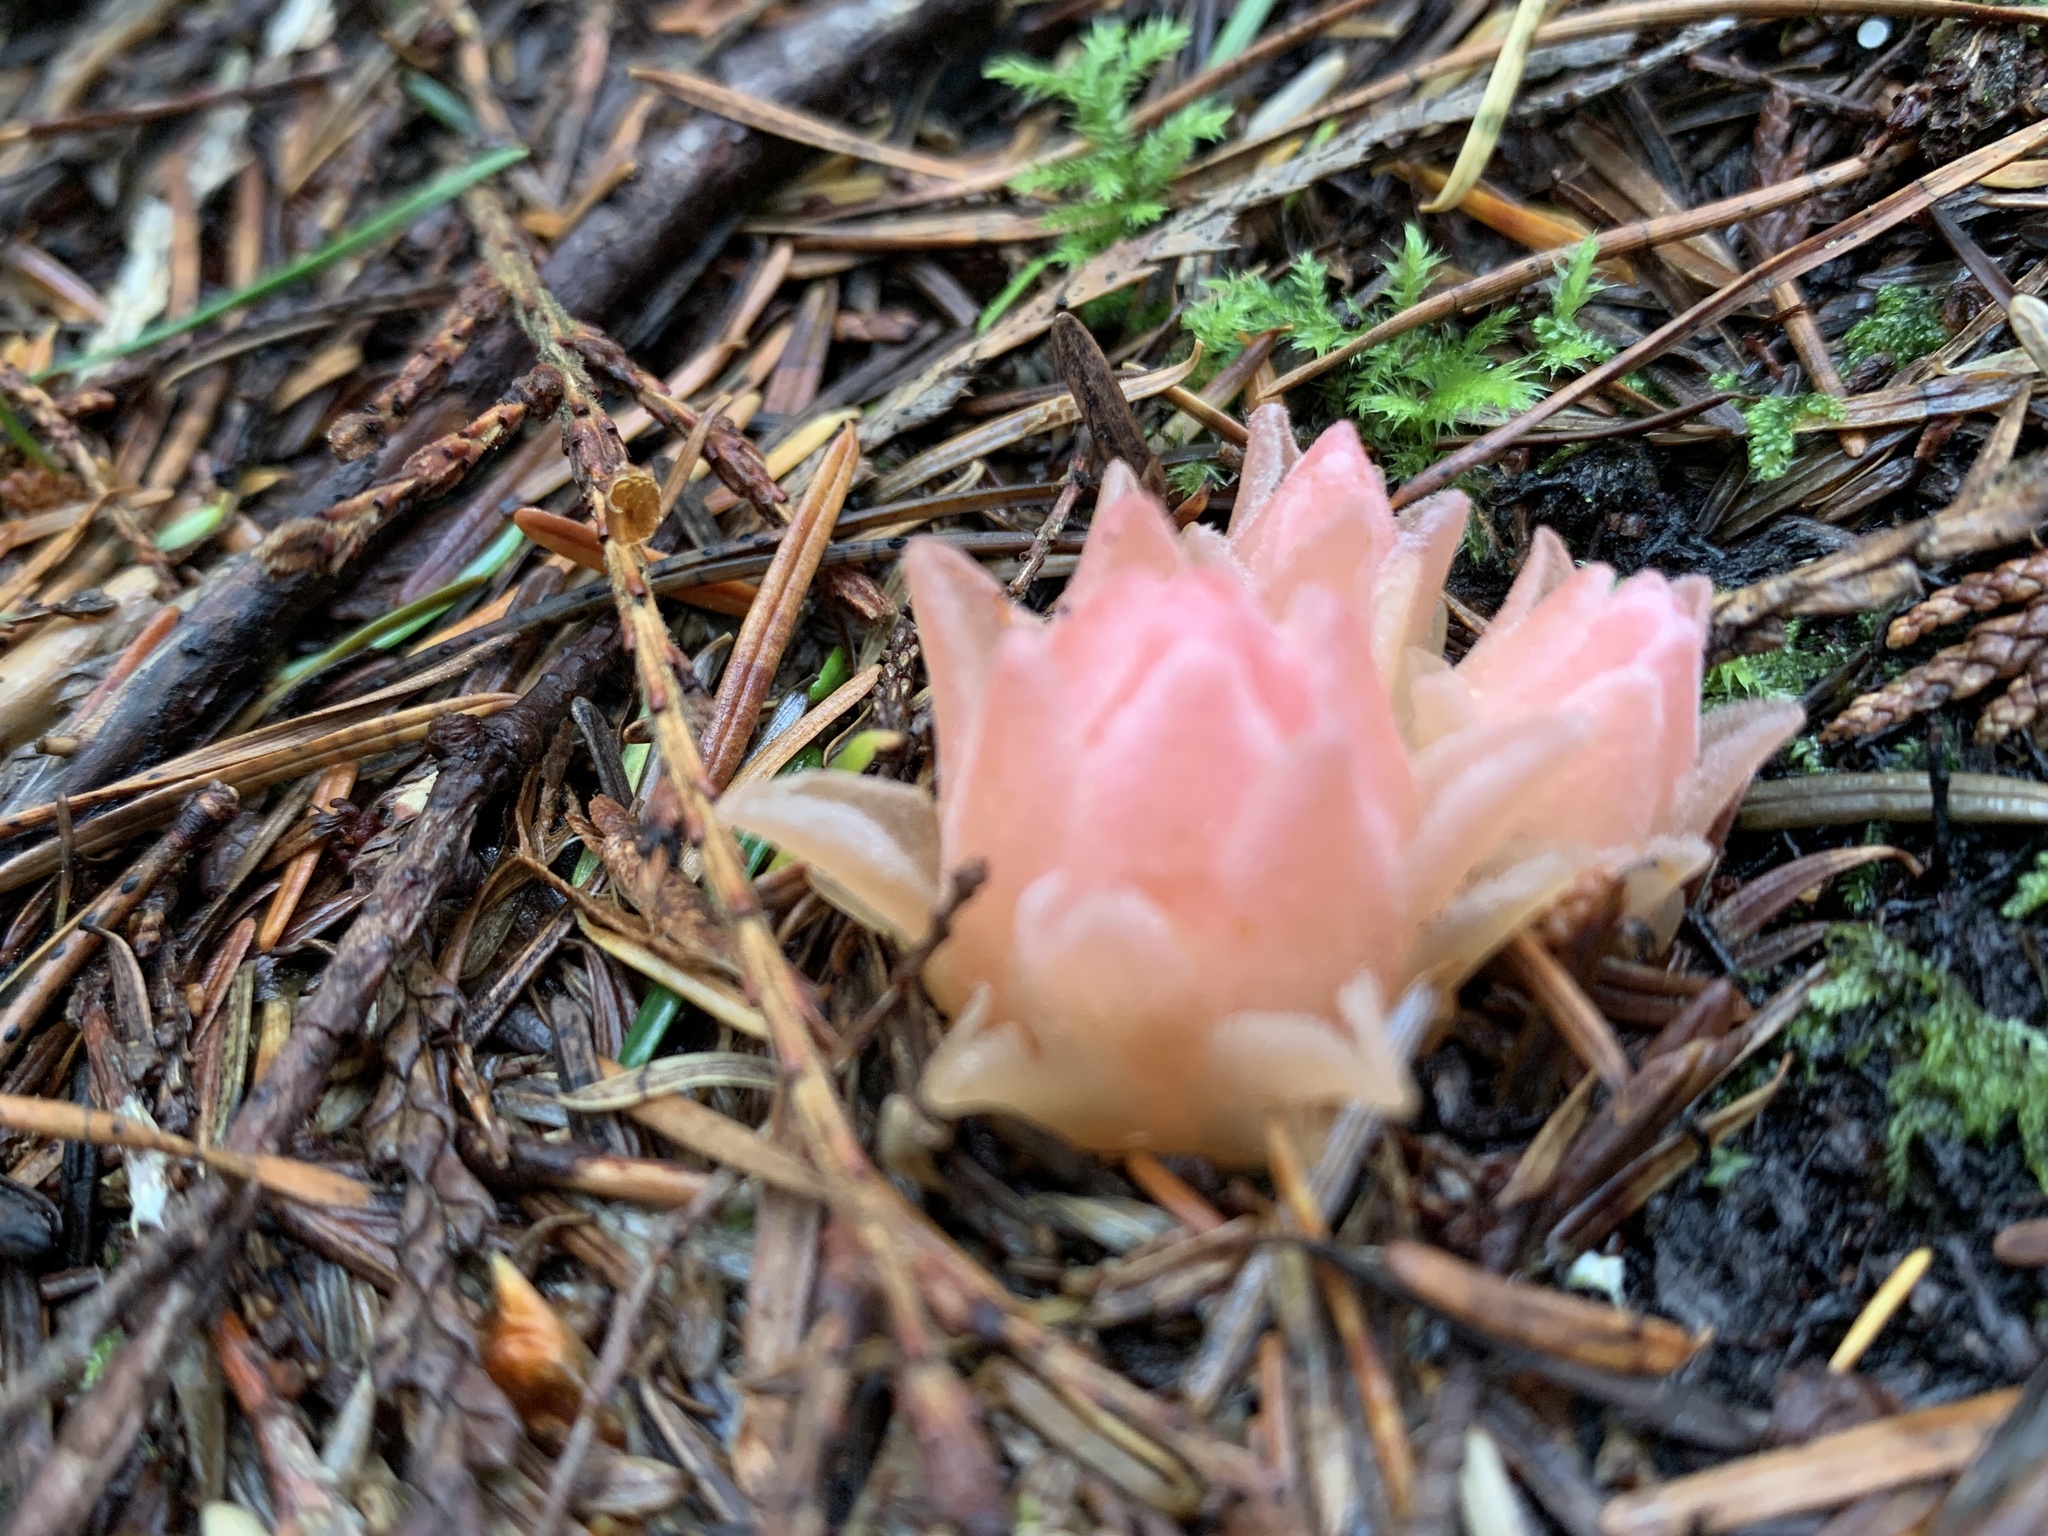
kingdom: Plantae
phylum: Tracheophyta
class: Magnoliopsida
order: Ericales
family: Ericaceae
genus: Hemitomes
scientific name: Hemitomes congestum
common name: Cone plant
